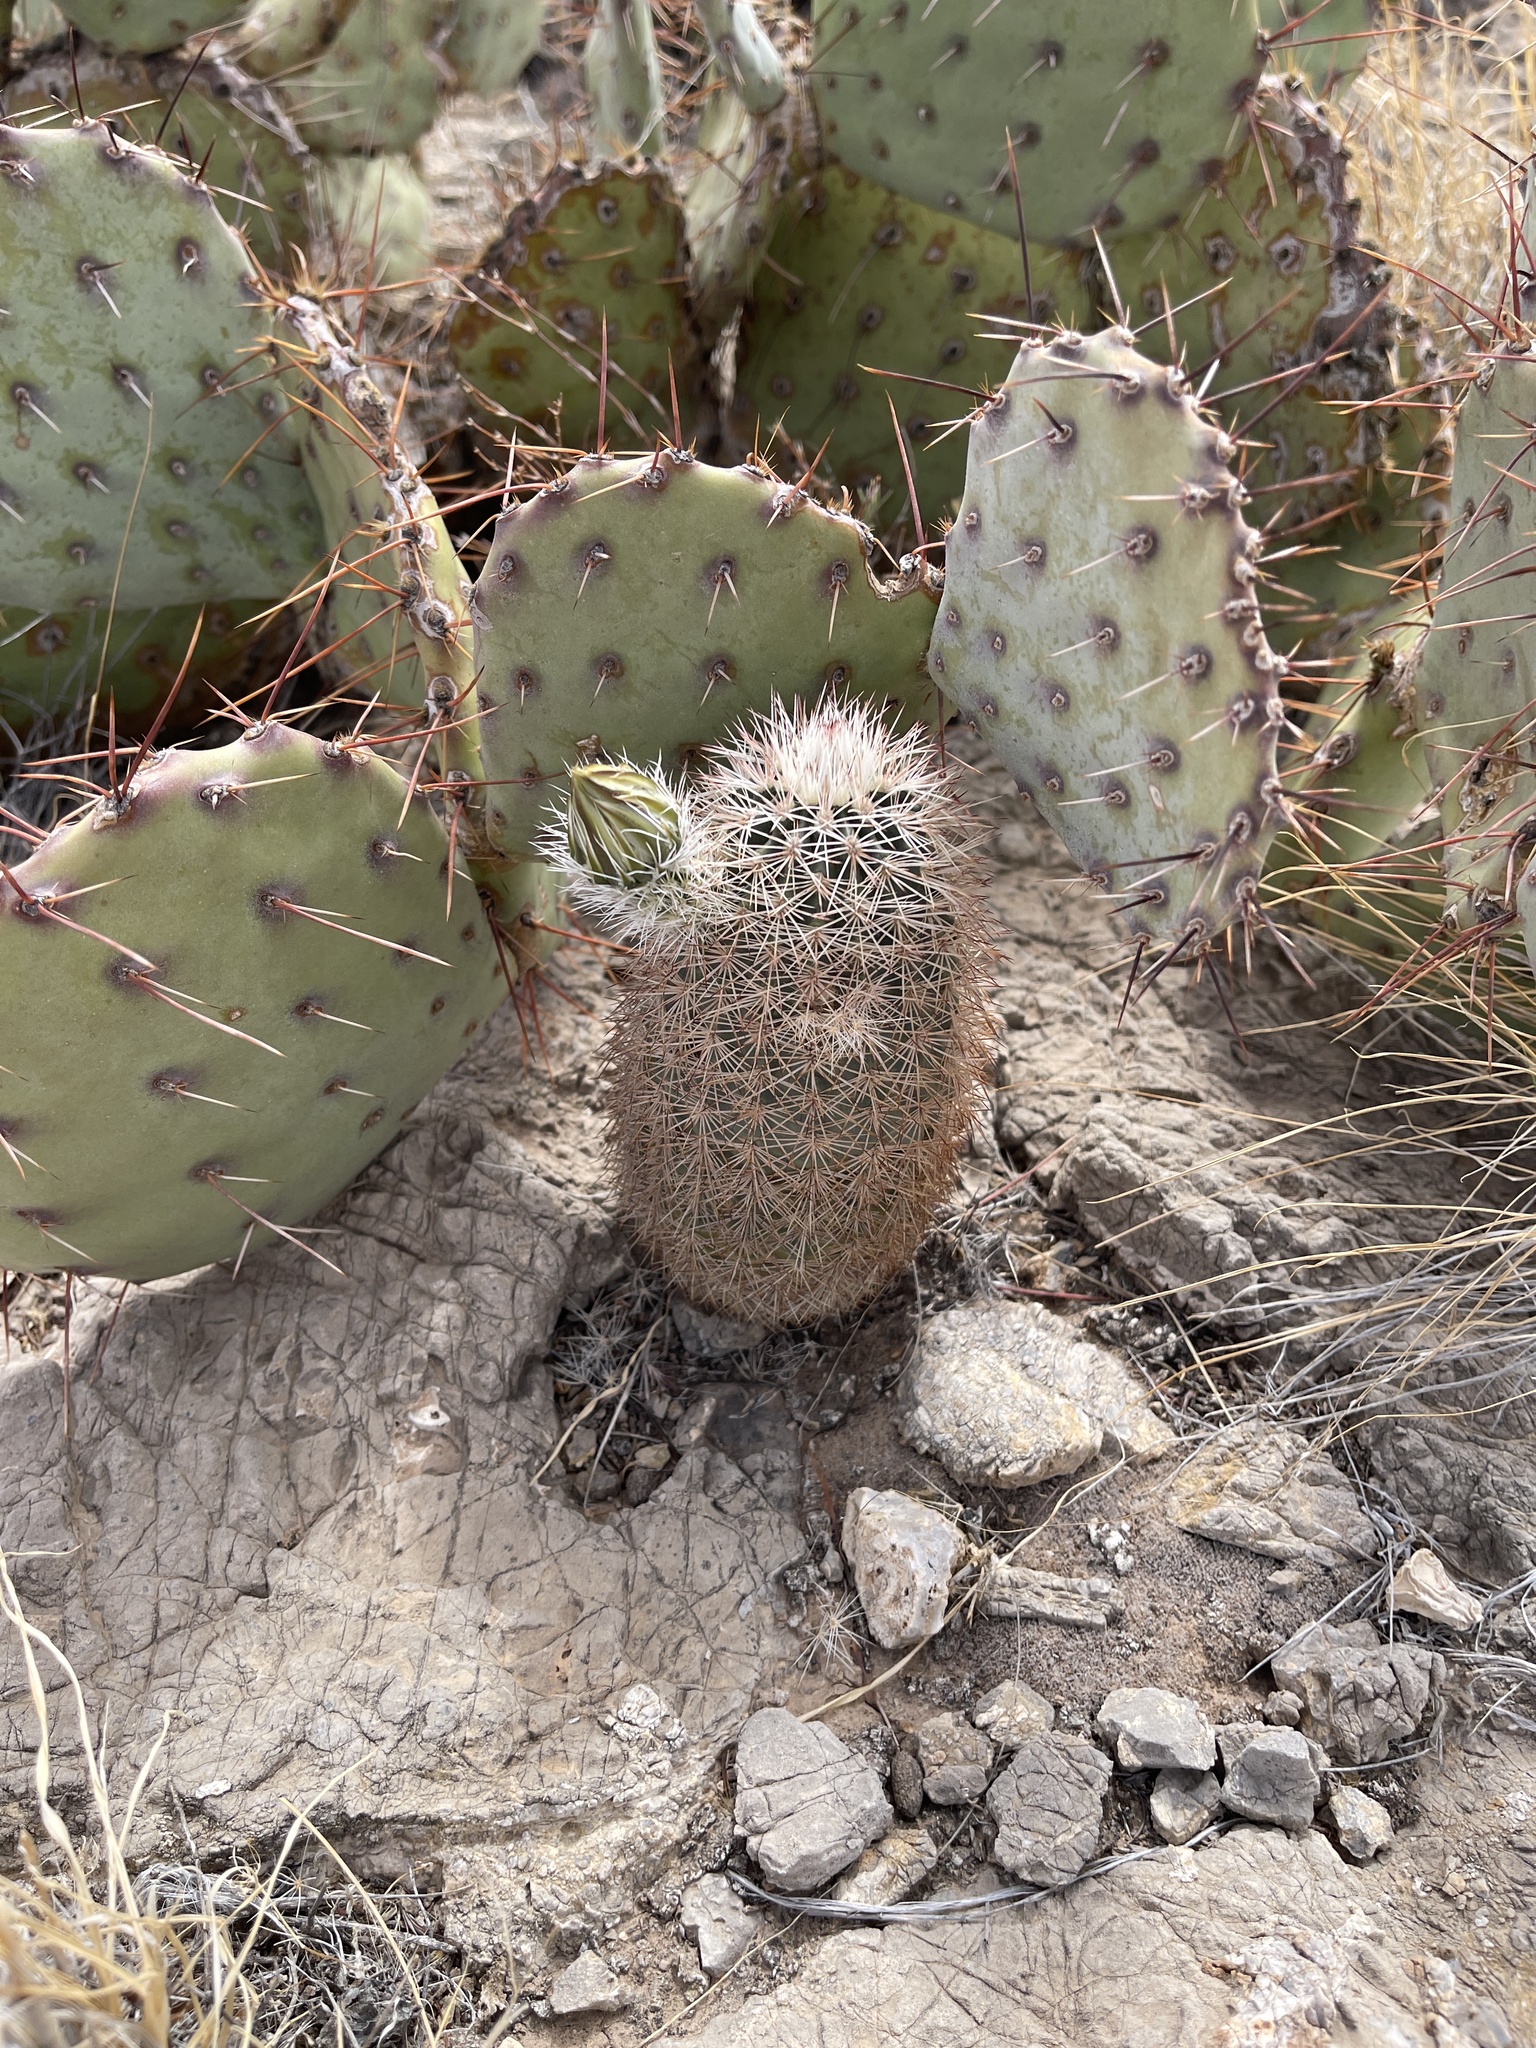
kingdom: Plantae
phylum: Tracheophyta
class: Magnoliopsida
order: Caryophyllales
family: Cactaceae
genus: Echinocereus
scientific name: Echinocereus dasyacanthus
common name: Spiny hedgehog cactus
